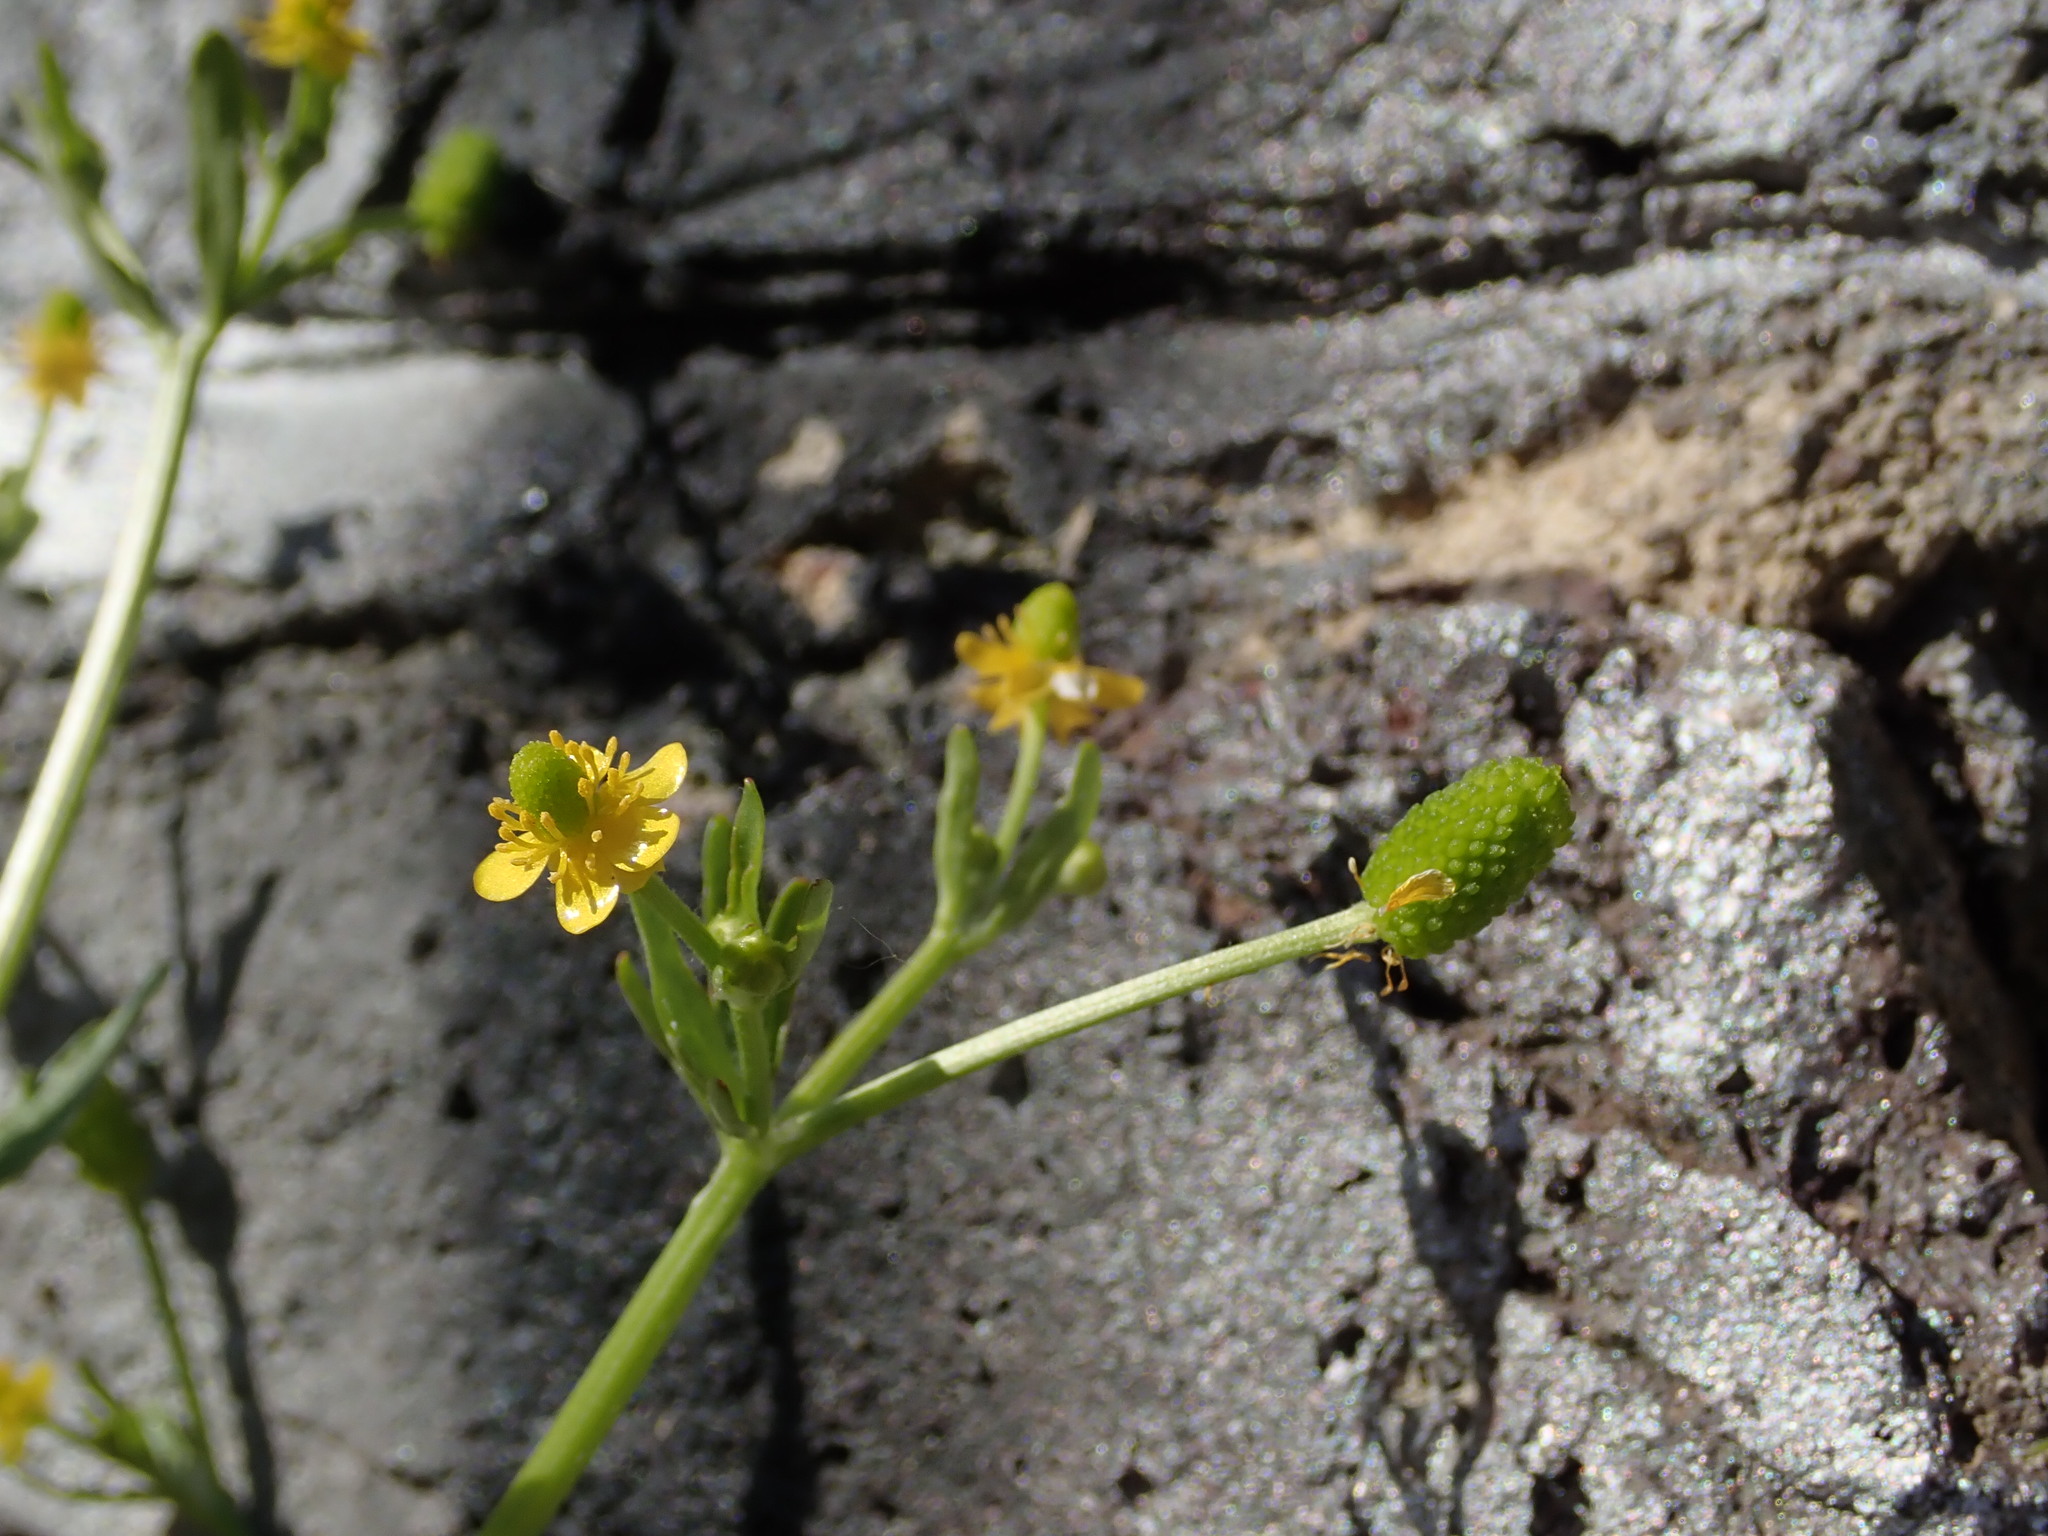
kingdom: Plantae
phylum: Tracheophyta
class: Magnoliopsida
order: Ranunculales
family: Ranunculaceae
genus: Ranunculus
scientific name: Ranunculus sceleratus
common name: Celery-leaved buttercup
